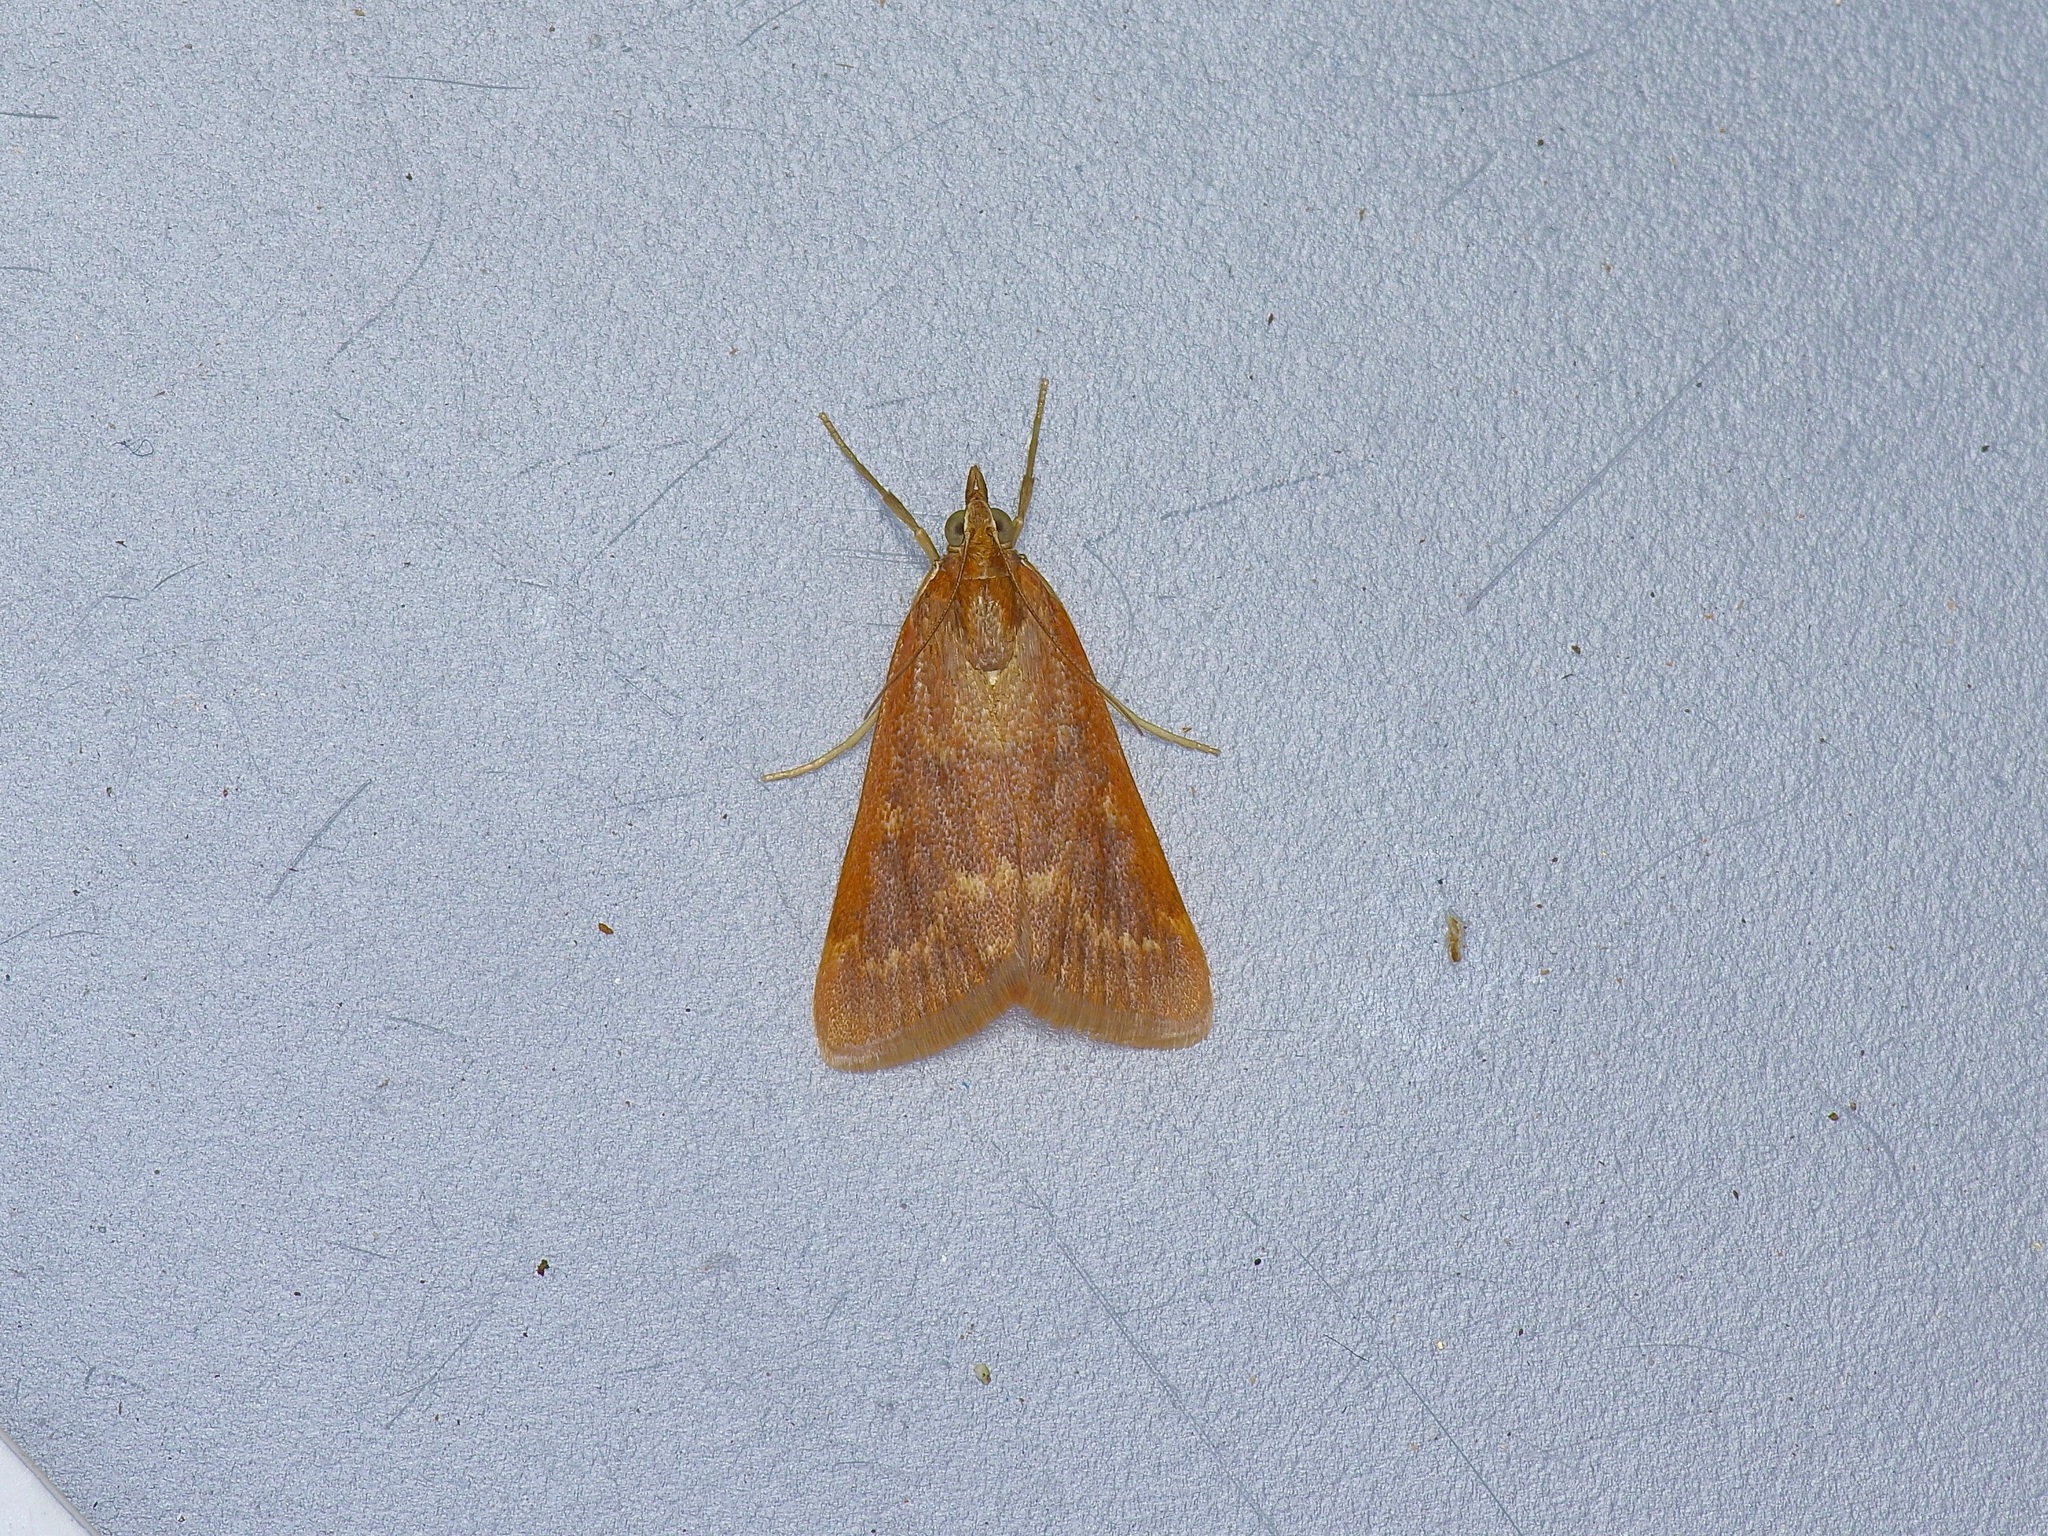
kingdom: Animalia
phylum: Arthropoda
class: Insecta
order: Lepidoptera
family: Crambidae
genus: Achyra
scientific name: Achyra rantalis
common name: Garden webworm
